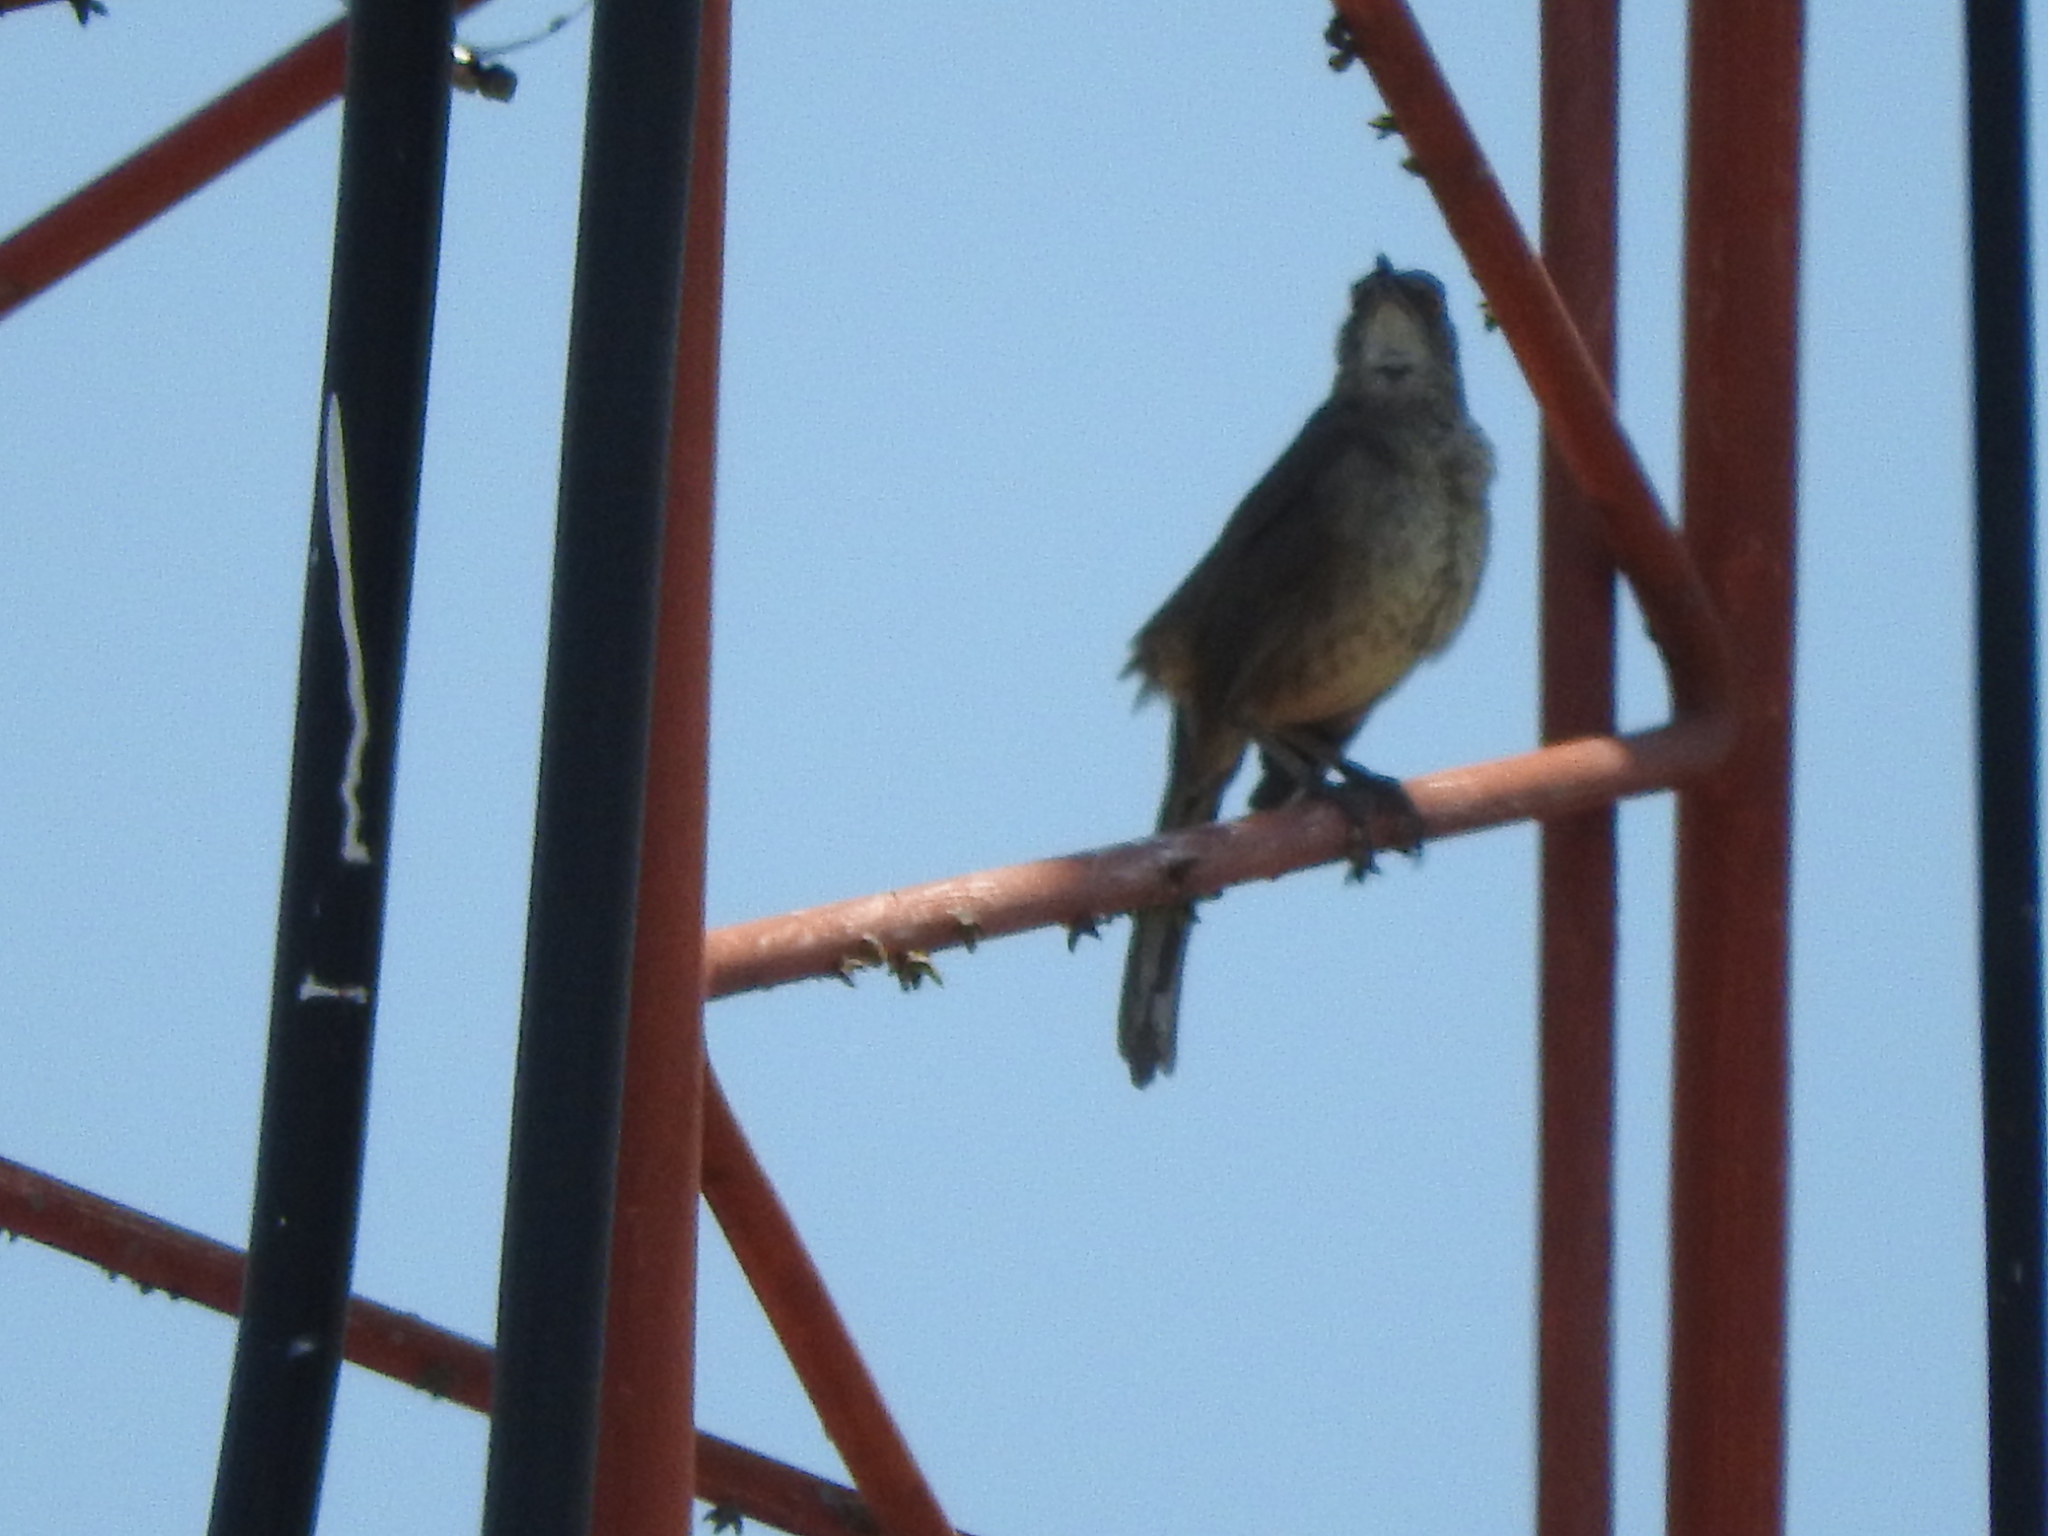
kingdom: Animalia
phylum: Chordata
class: Aves
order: Passeriformes
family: Mimidae
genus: Toxostoma
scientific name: Toxostoma curvirostre
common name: Curve-billed thrasher
